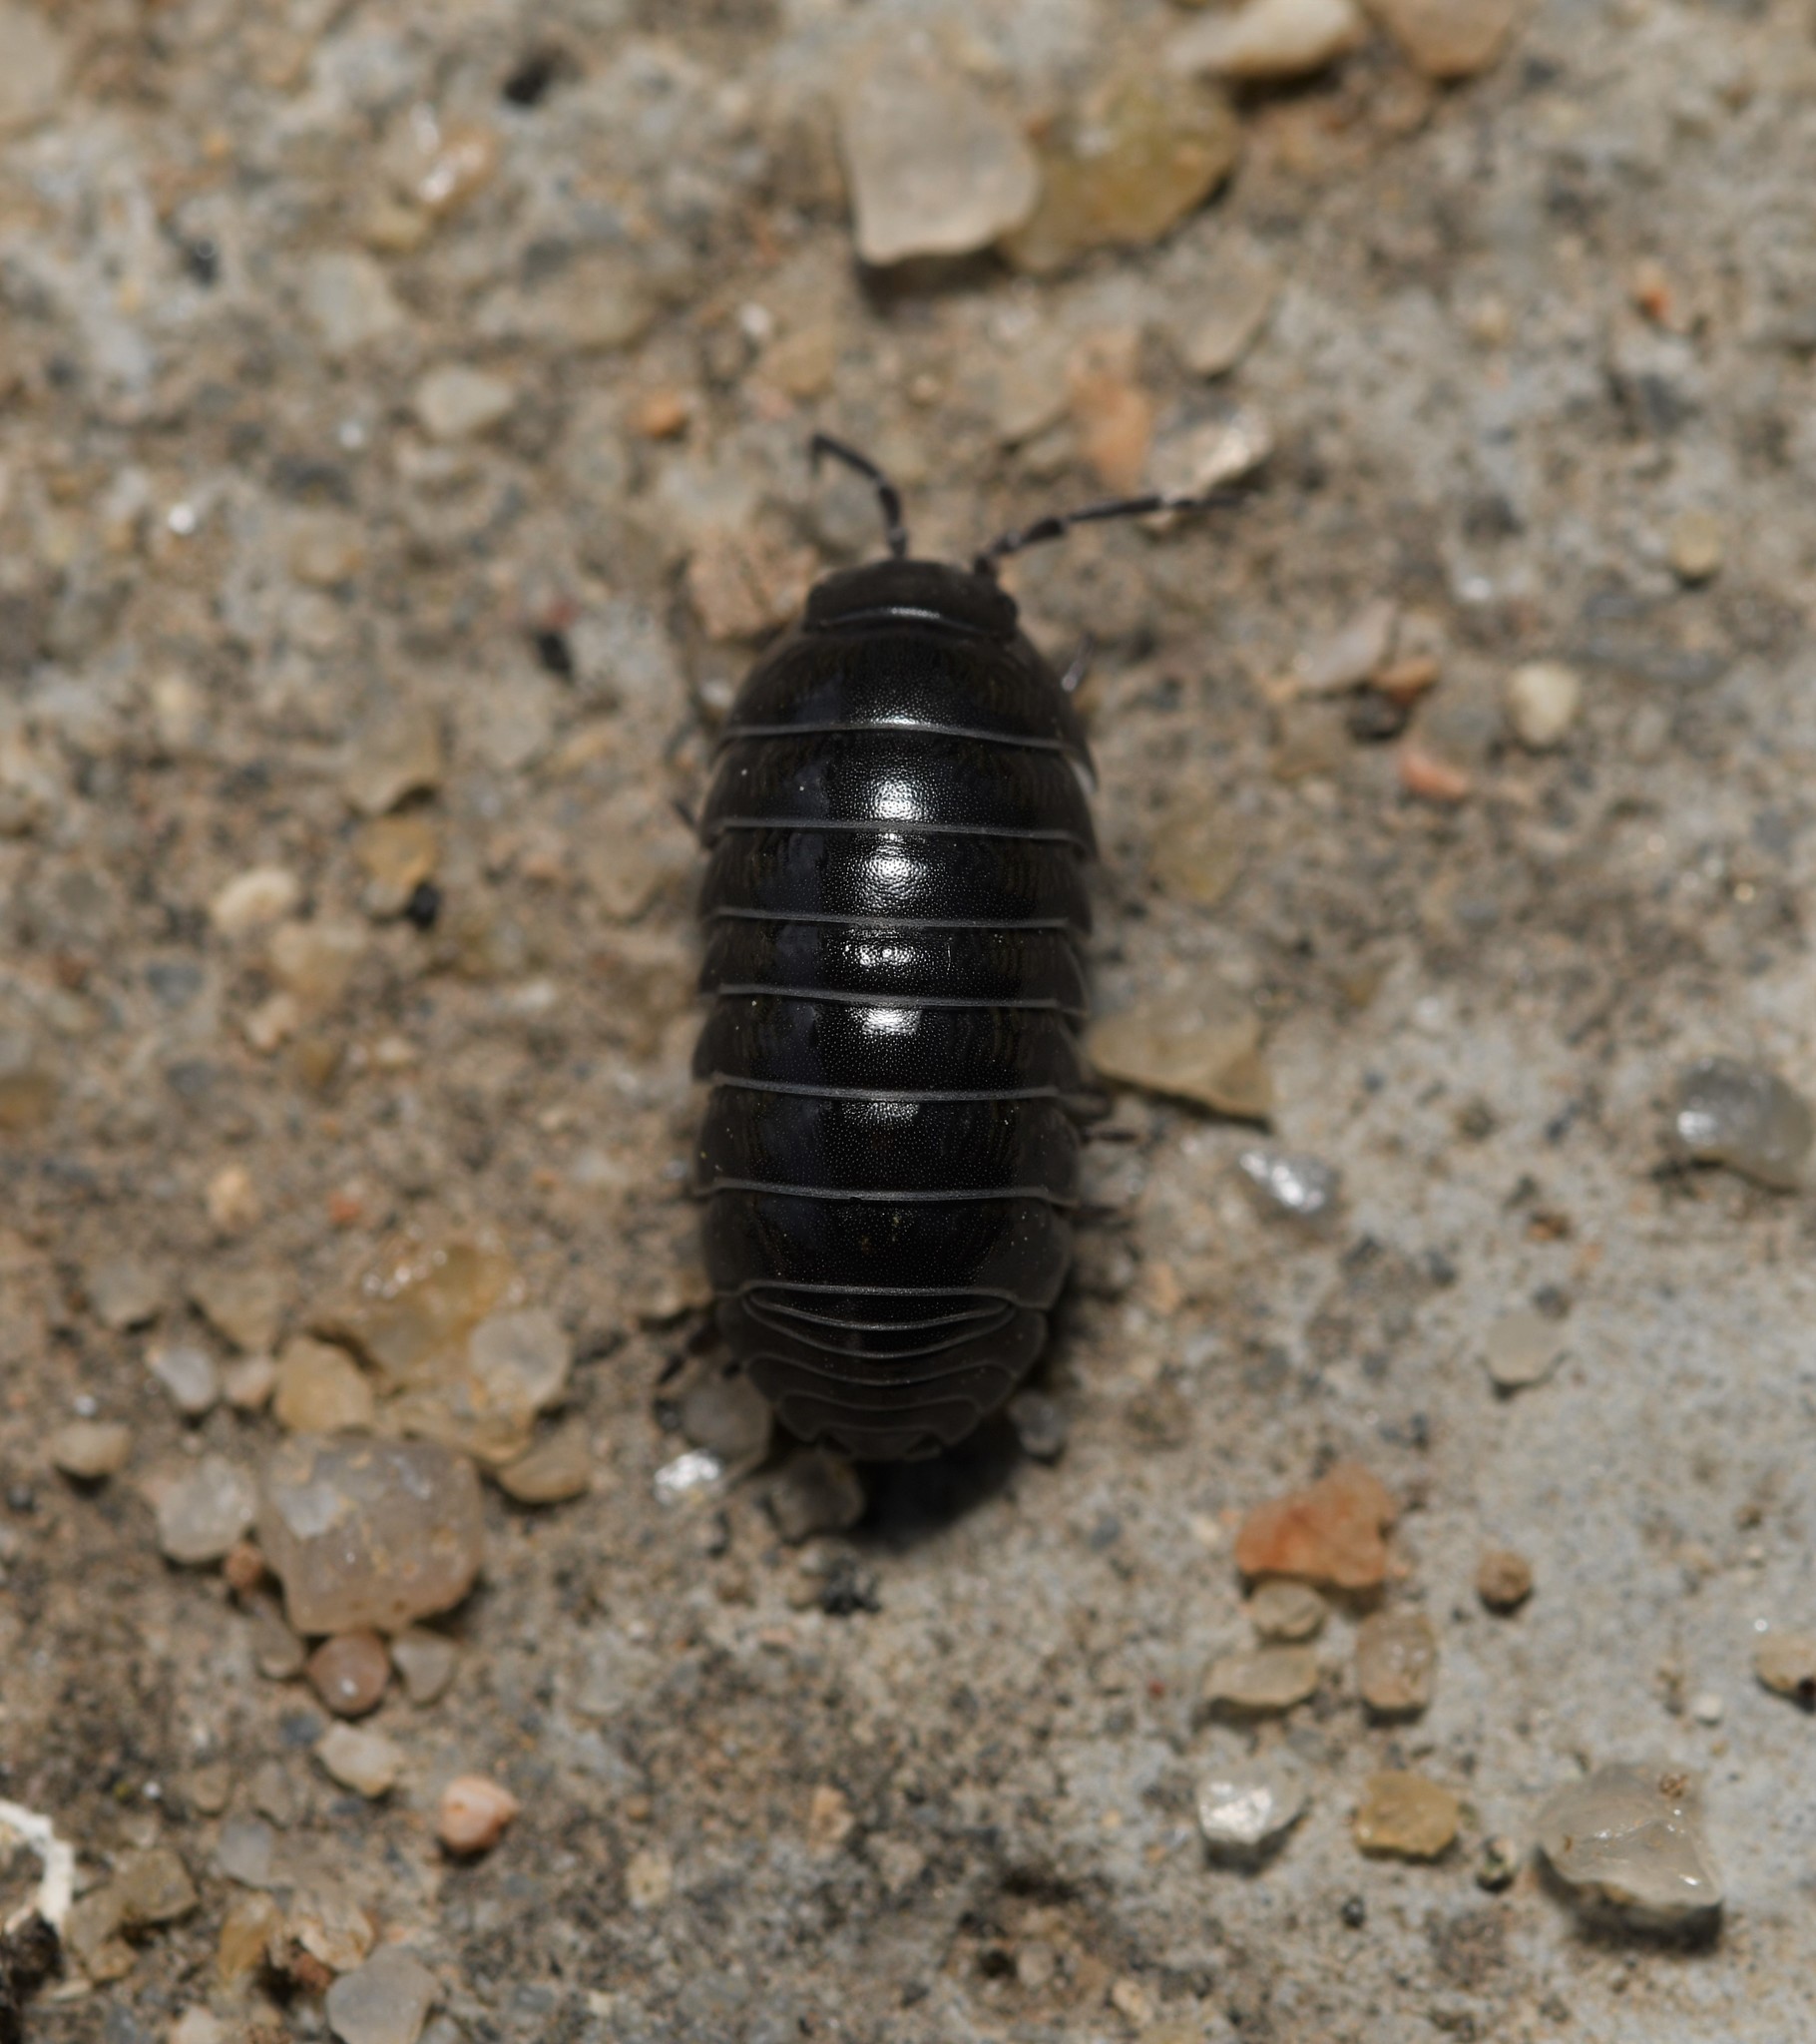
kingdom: Animalia
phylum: Arthropoda
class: Malacostraca
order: Isopoda
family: Armadillidiidae
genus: Armadillidium
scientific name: Armadillidium vulgare
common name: Common pill woodlouse
